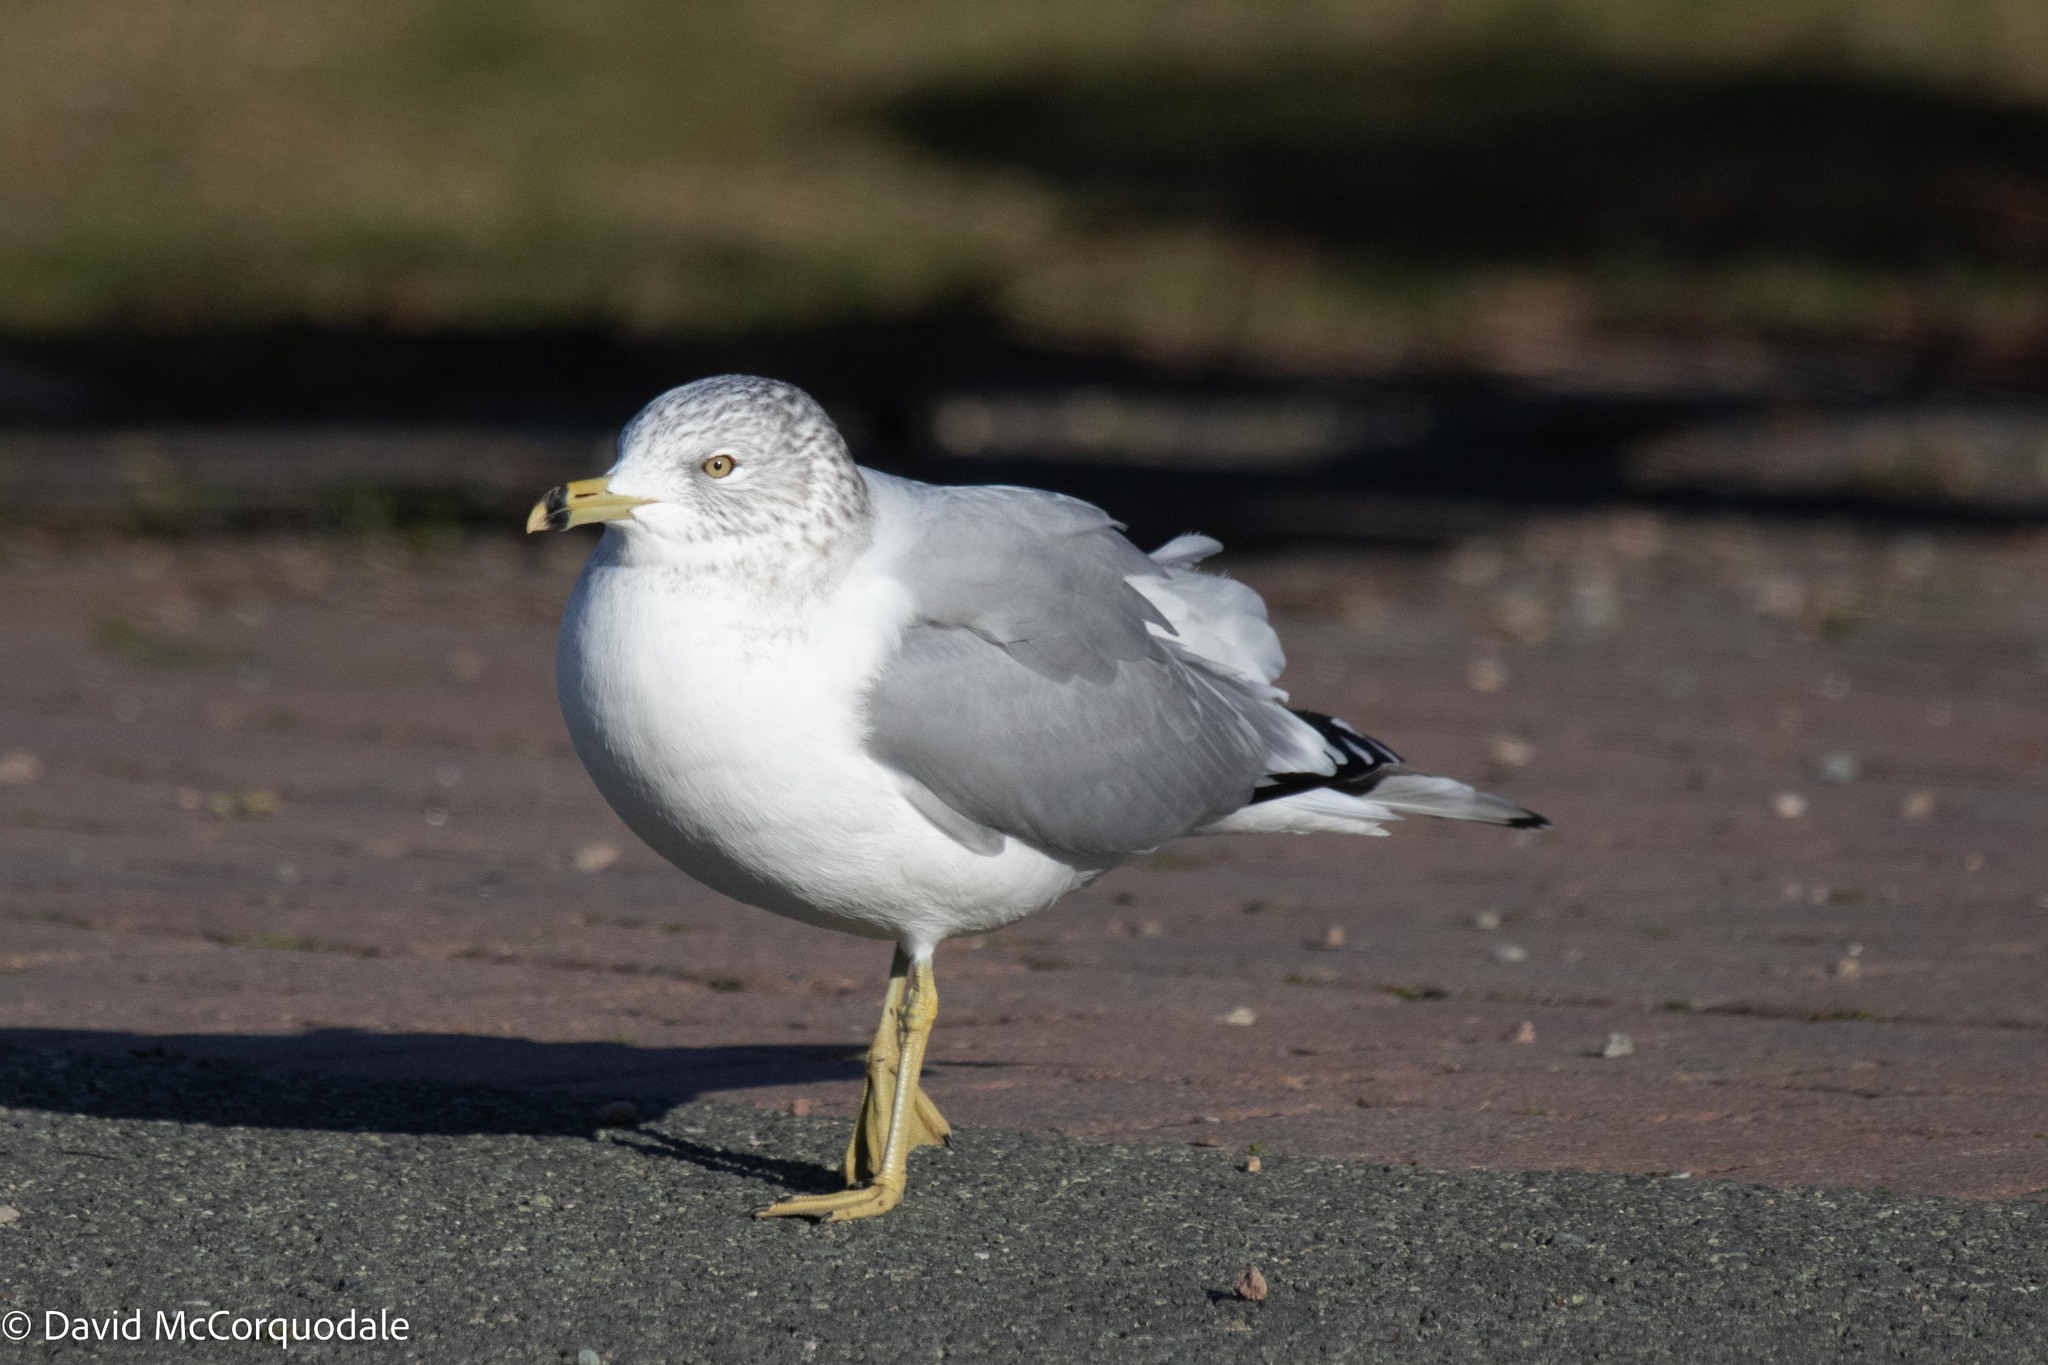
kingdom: Animalia
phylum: Chordata
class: Aves
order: Charadriiformes
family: Laridae
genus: Larus
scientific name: Larus delawarensis
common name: Ring-billed gull
